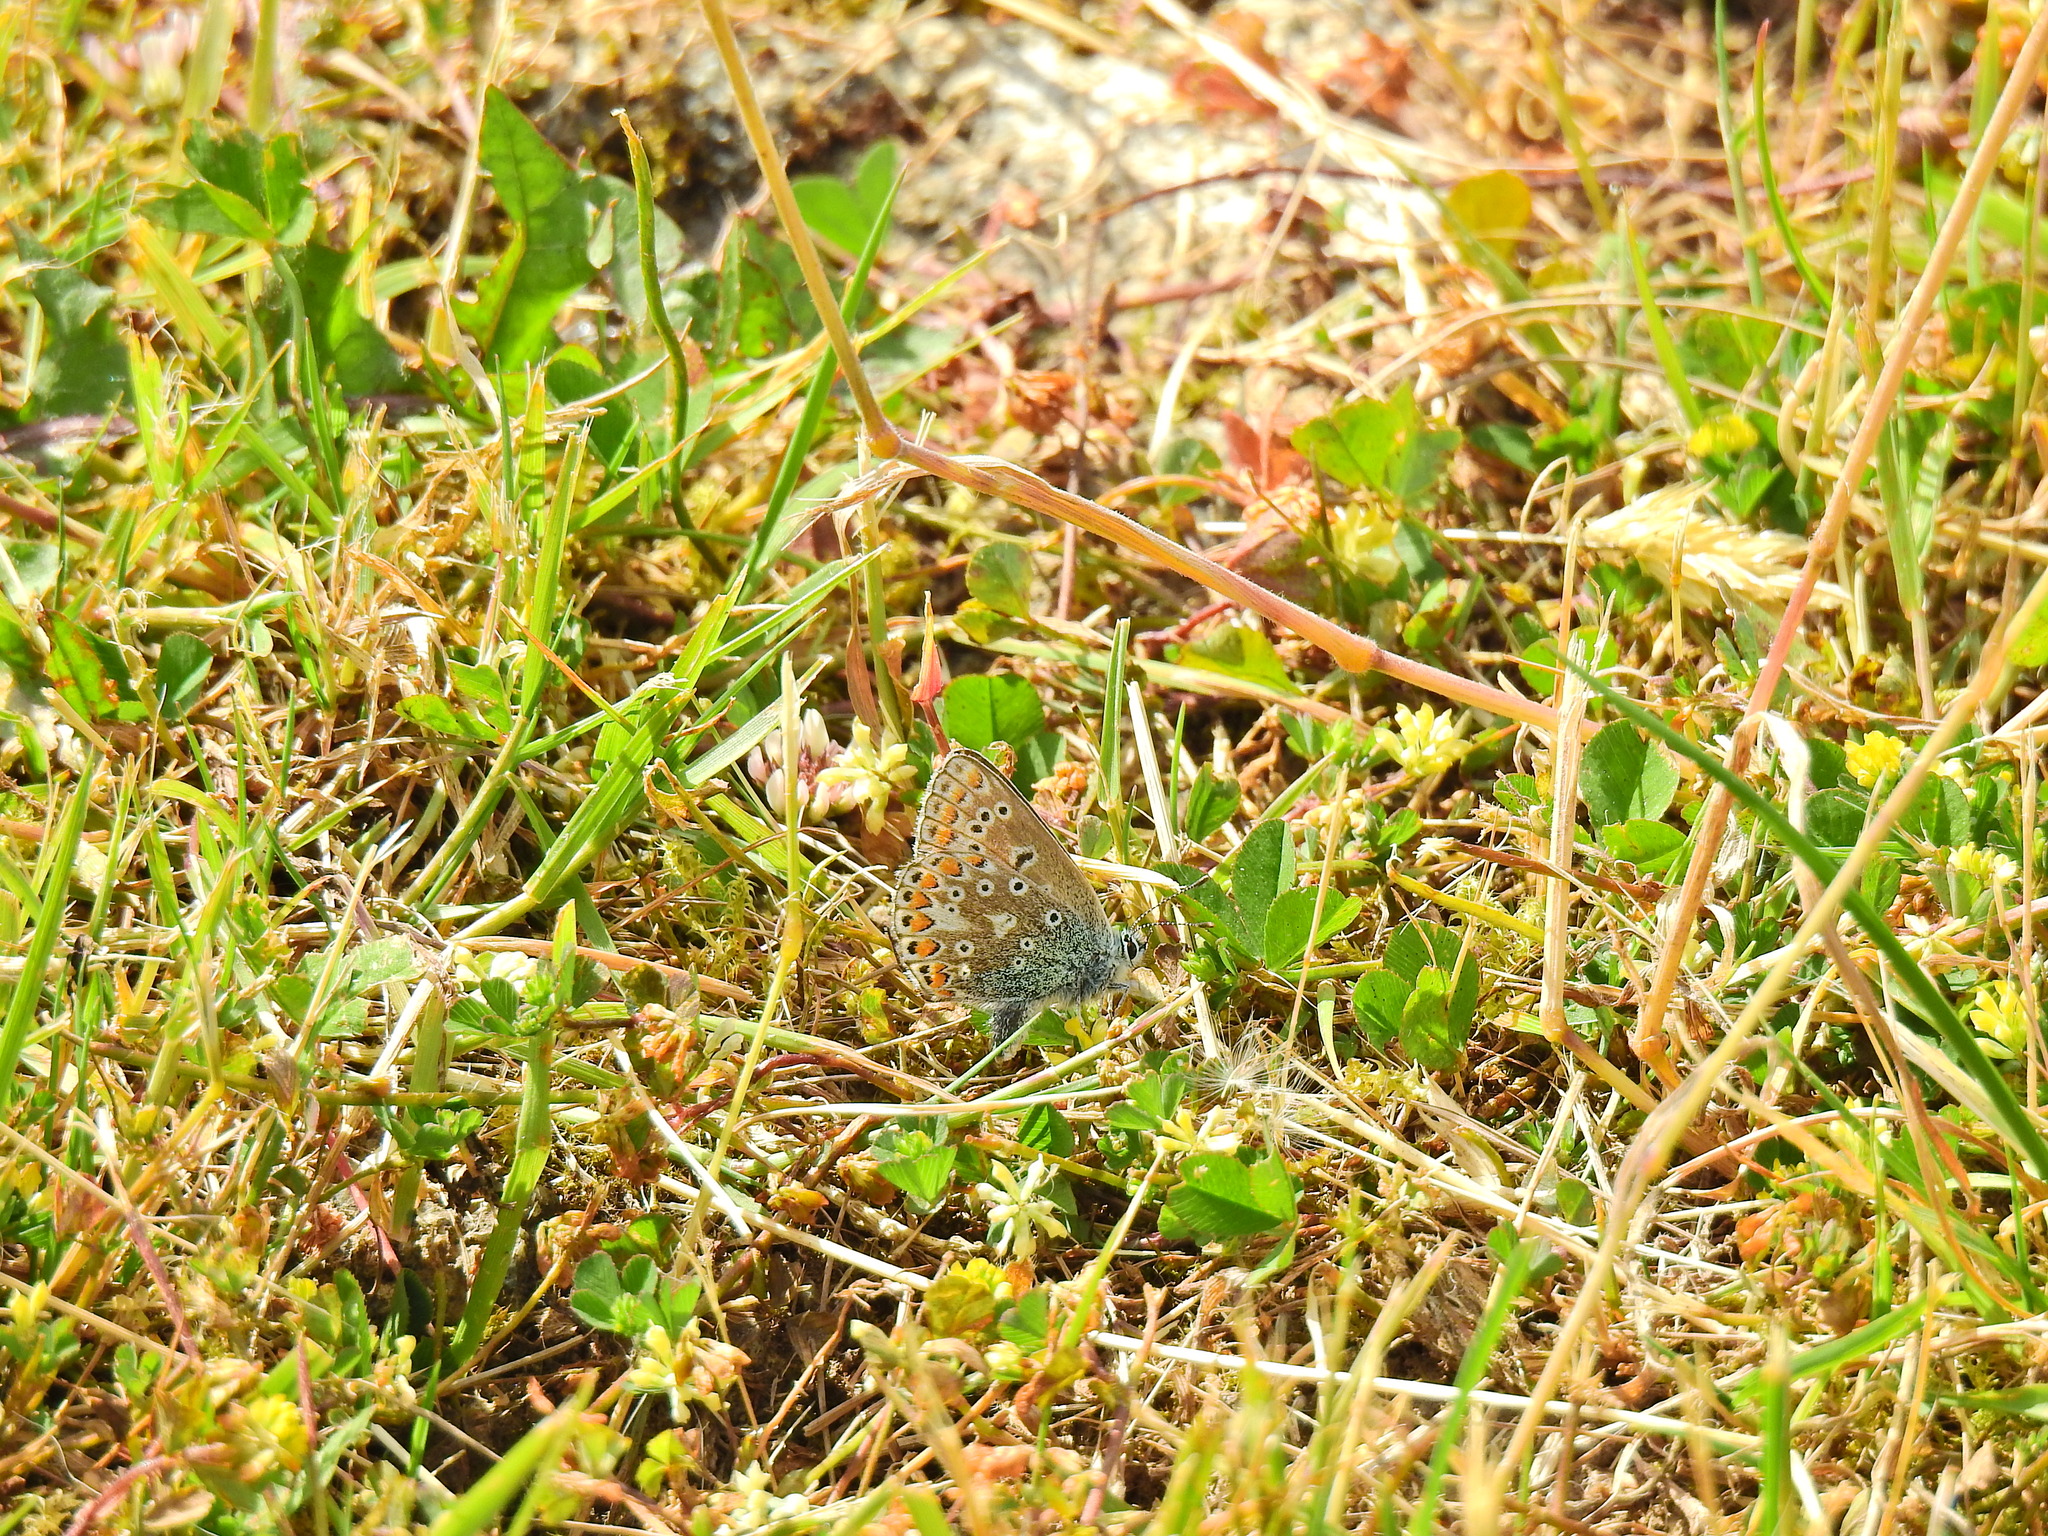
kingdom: Animalia
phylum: Arthropoda
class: Insecta
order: Lepidoptera
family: Lycaenidae
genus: Polyommatus
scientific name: Polyommatus icarus
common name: Common blue
